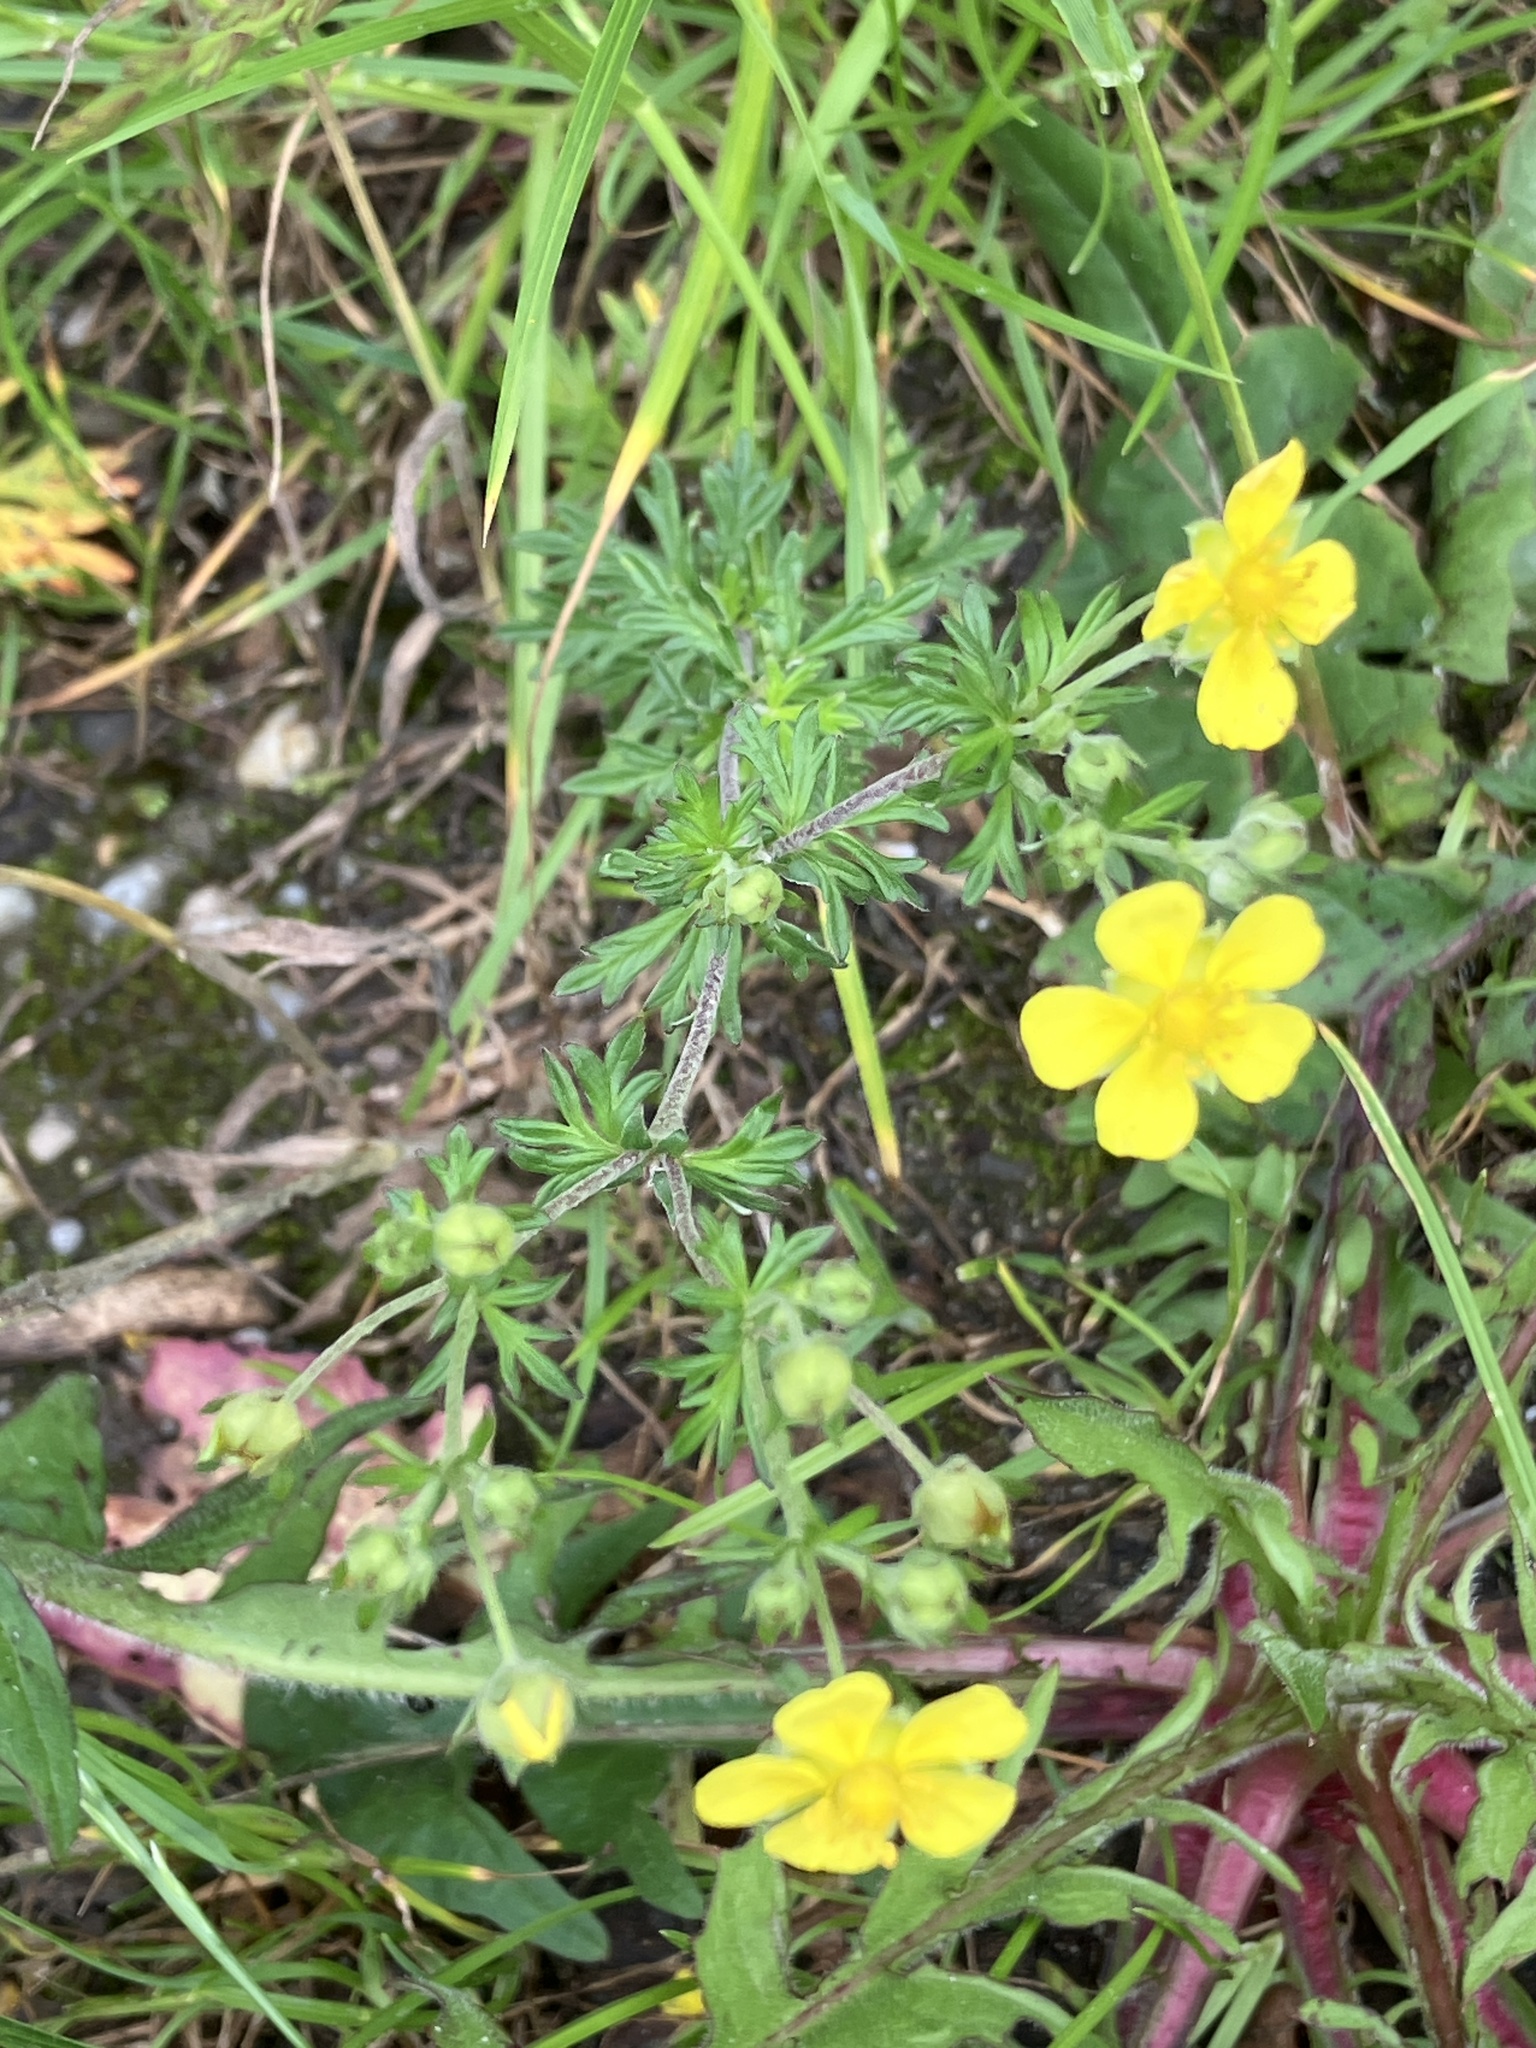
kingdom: Plantae
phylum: Tracheophyta
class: Magnoliopsida
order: Rosales
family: Rosaceae
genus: Potentilla
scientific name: Potentilla argentea
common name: Hoary cinquefoil
